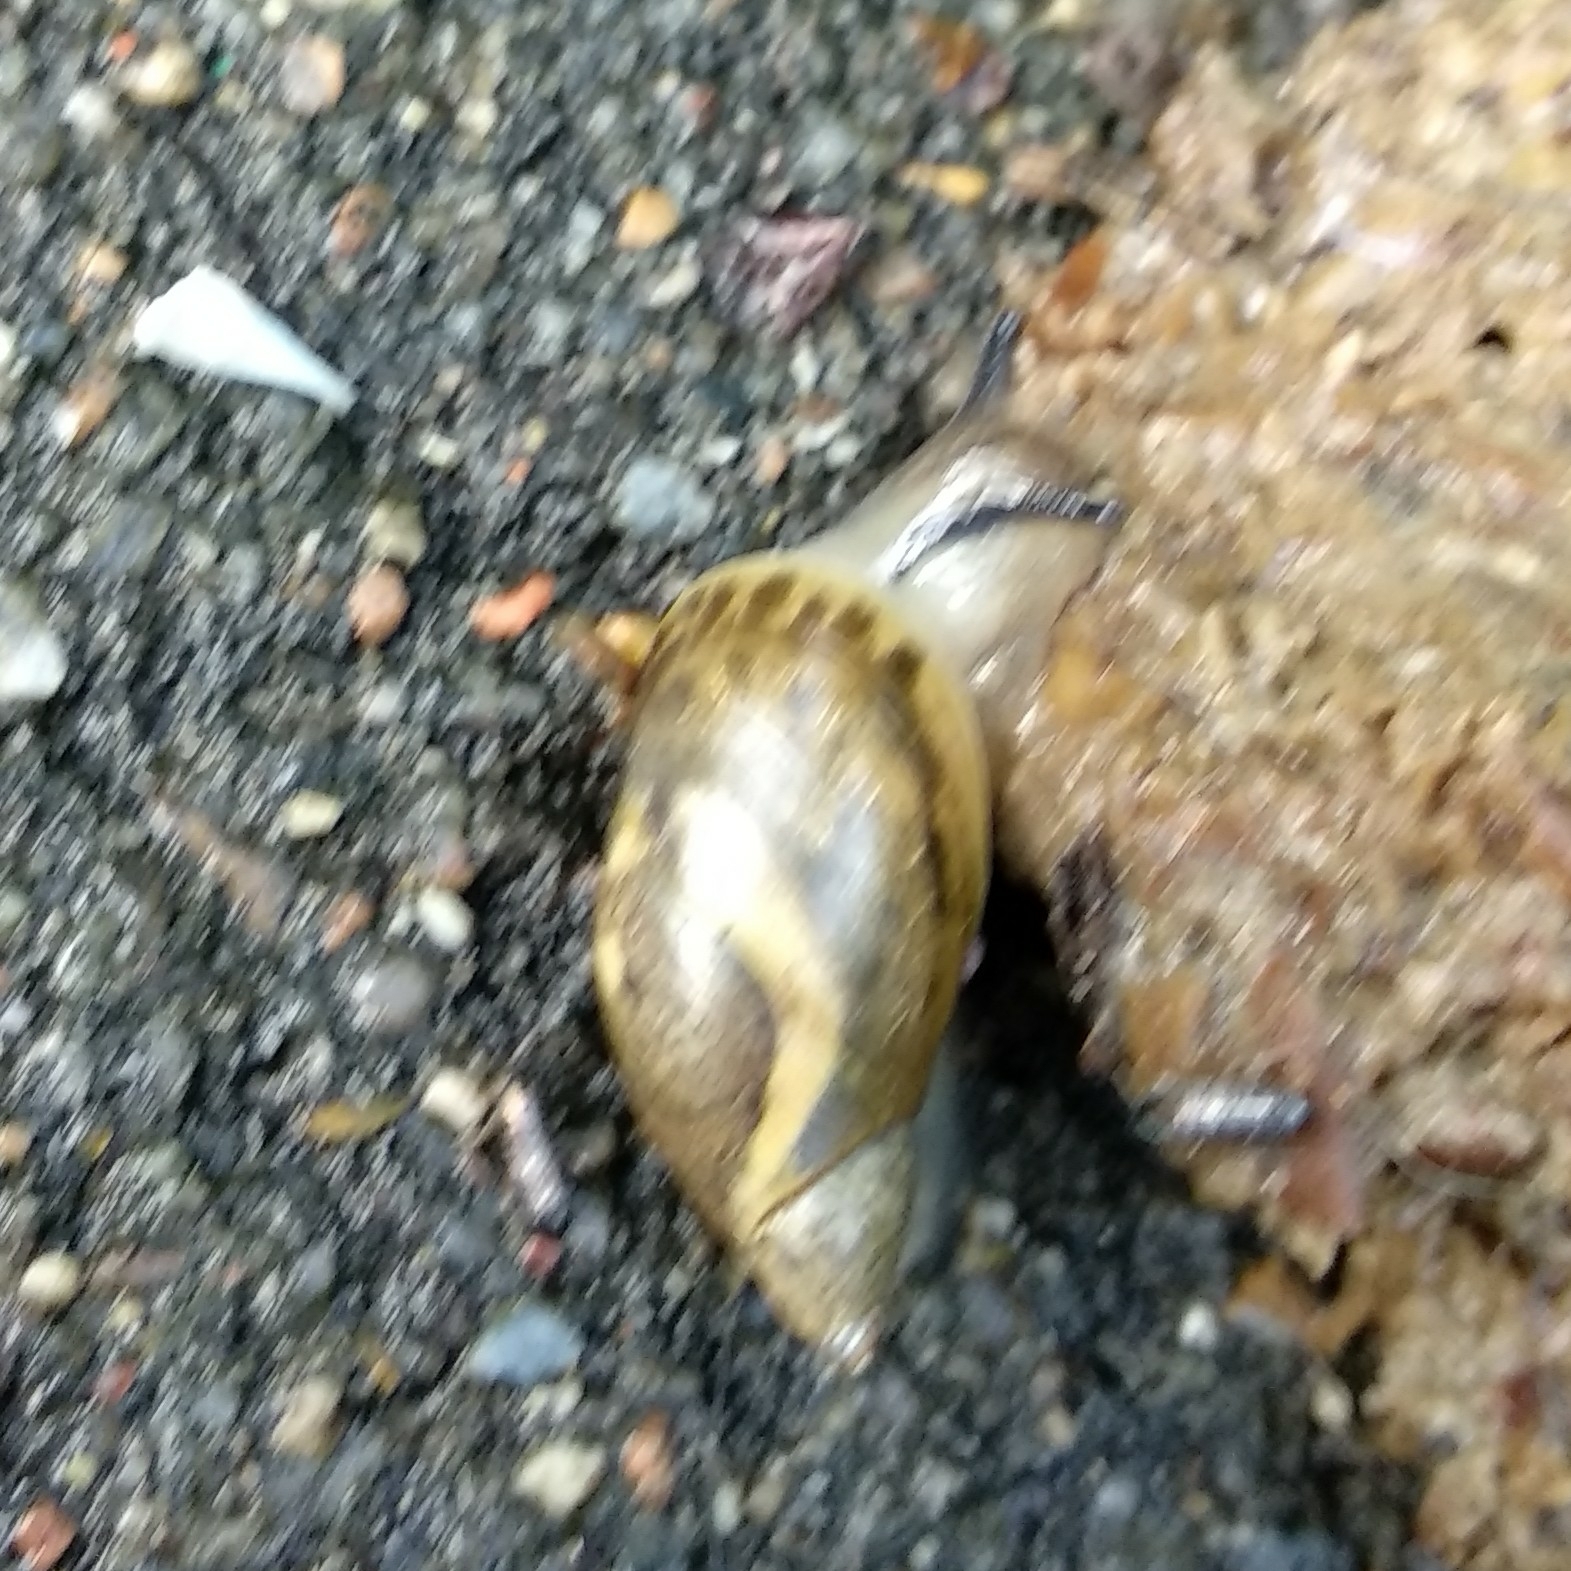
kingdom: Animalia
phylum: Mollusca
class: Gastropoda
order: Stylommatophora
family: Succineidae
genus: Succinea
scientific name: Succinea putris
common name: European ambersnail
